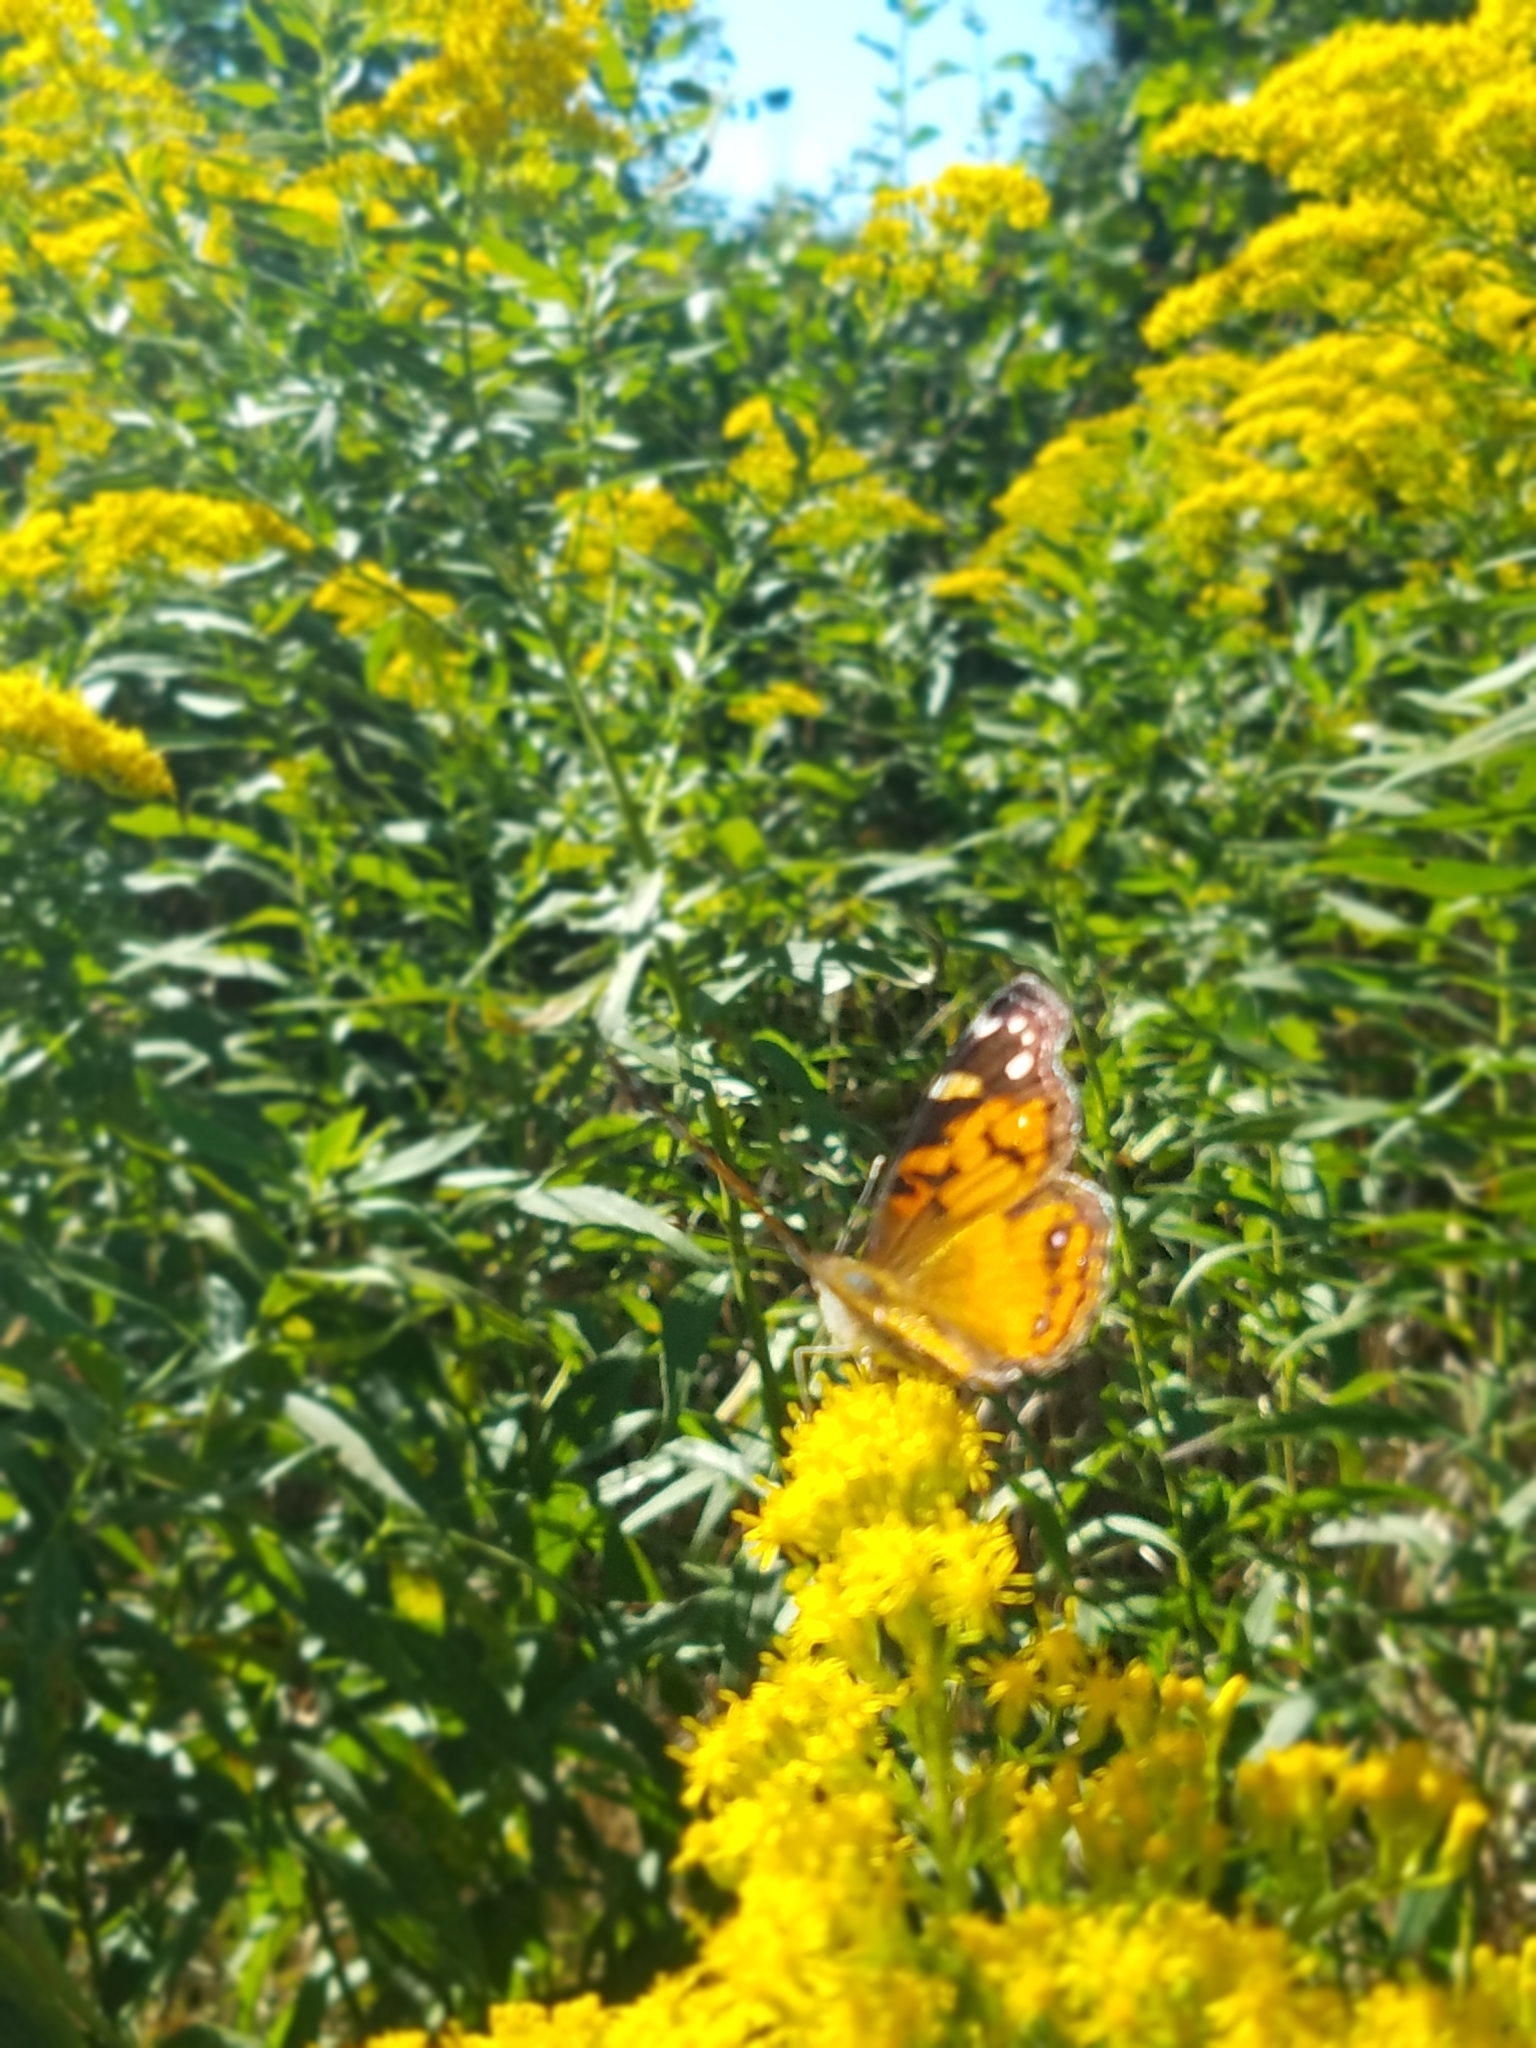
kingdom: Animalia
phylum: Arthropoda
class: Insecta
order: Lepidoptera
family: Nymphalidae
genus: Vanessa
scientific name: Vanessa virginiensis
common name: American lady
